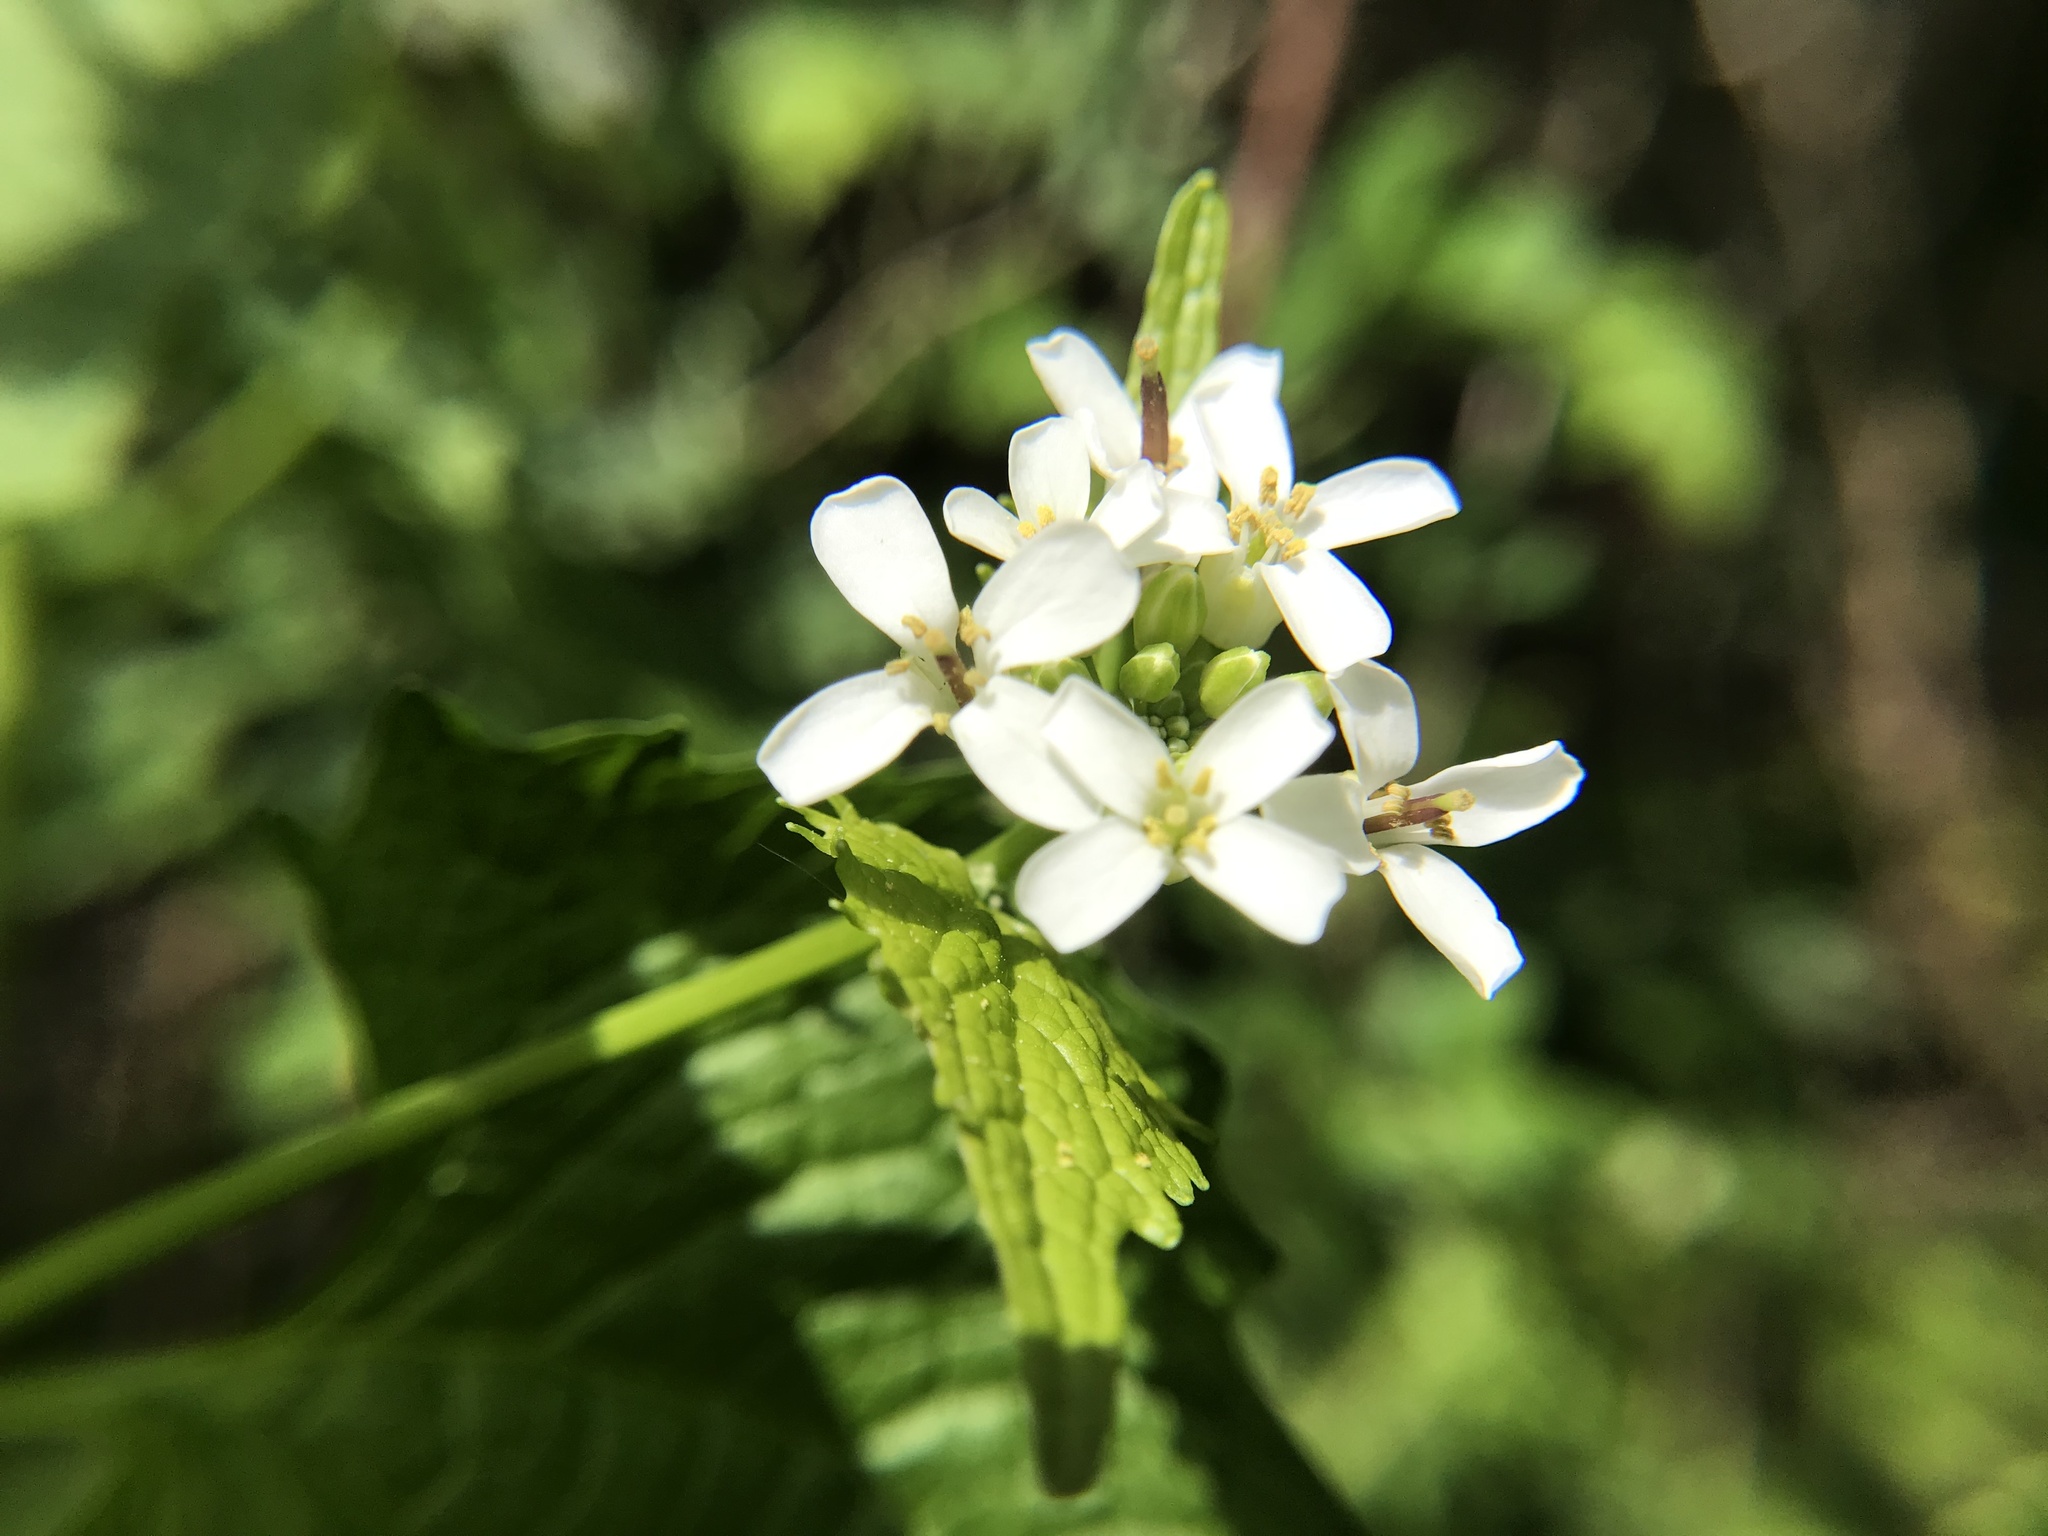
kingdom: Plantae
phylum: Tracheophyta
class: Magnoliopsida
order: Brassicales
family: Brassicaceae
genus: Alliaria
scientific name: Alliaria petiolata
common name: Garlic mustard
